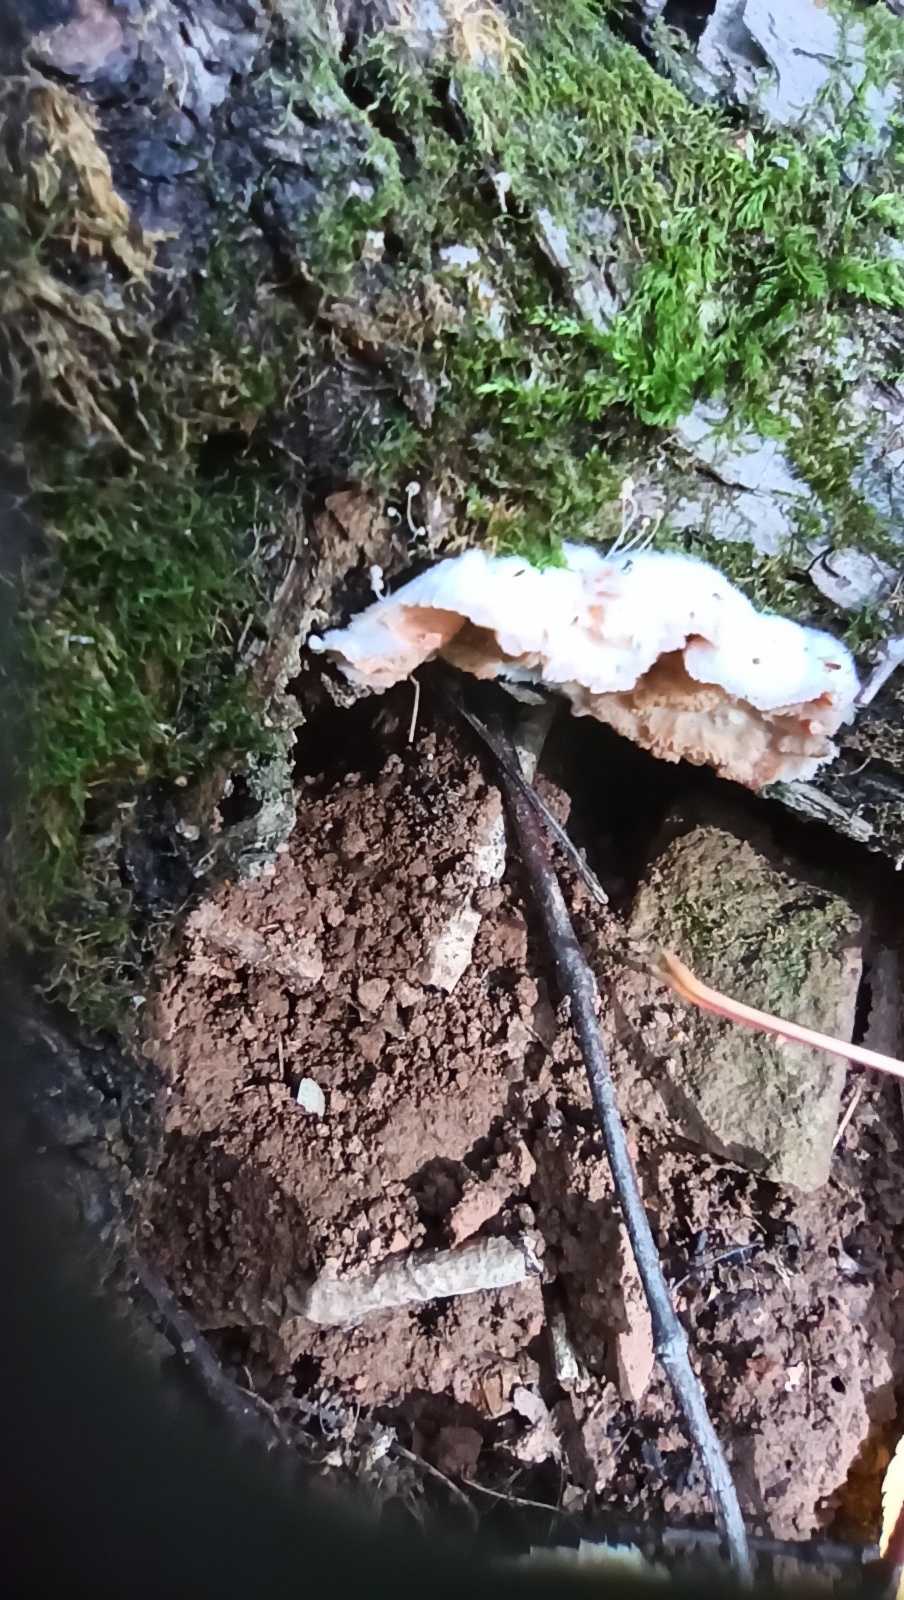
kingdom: Fungi
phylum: Basidiomycota
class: Agaricomycetes
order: Polyporales
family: Meruliaceae
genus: Phlebia
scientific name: Phlebia tremellosa
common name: Jelly rot
